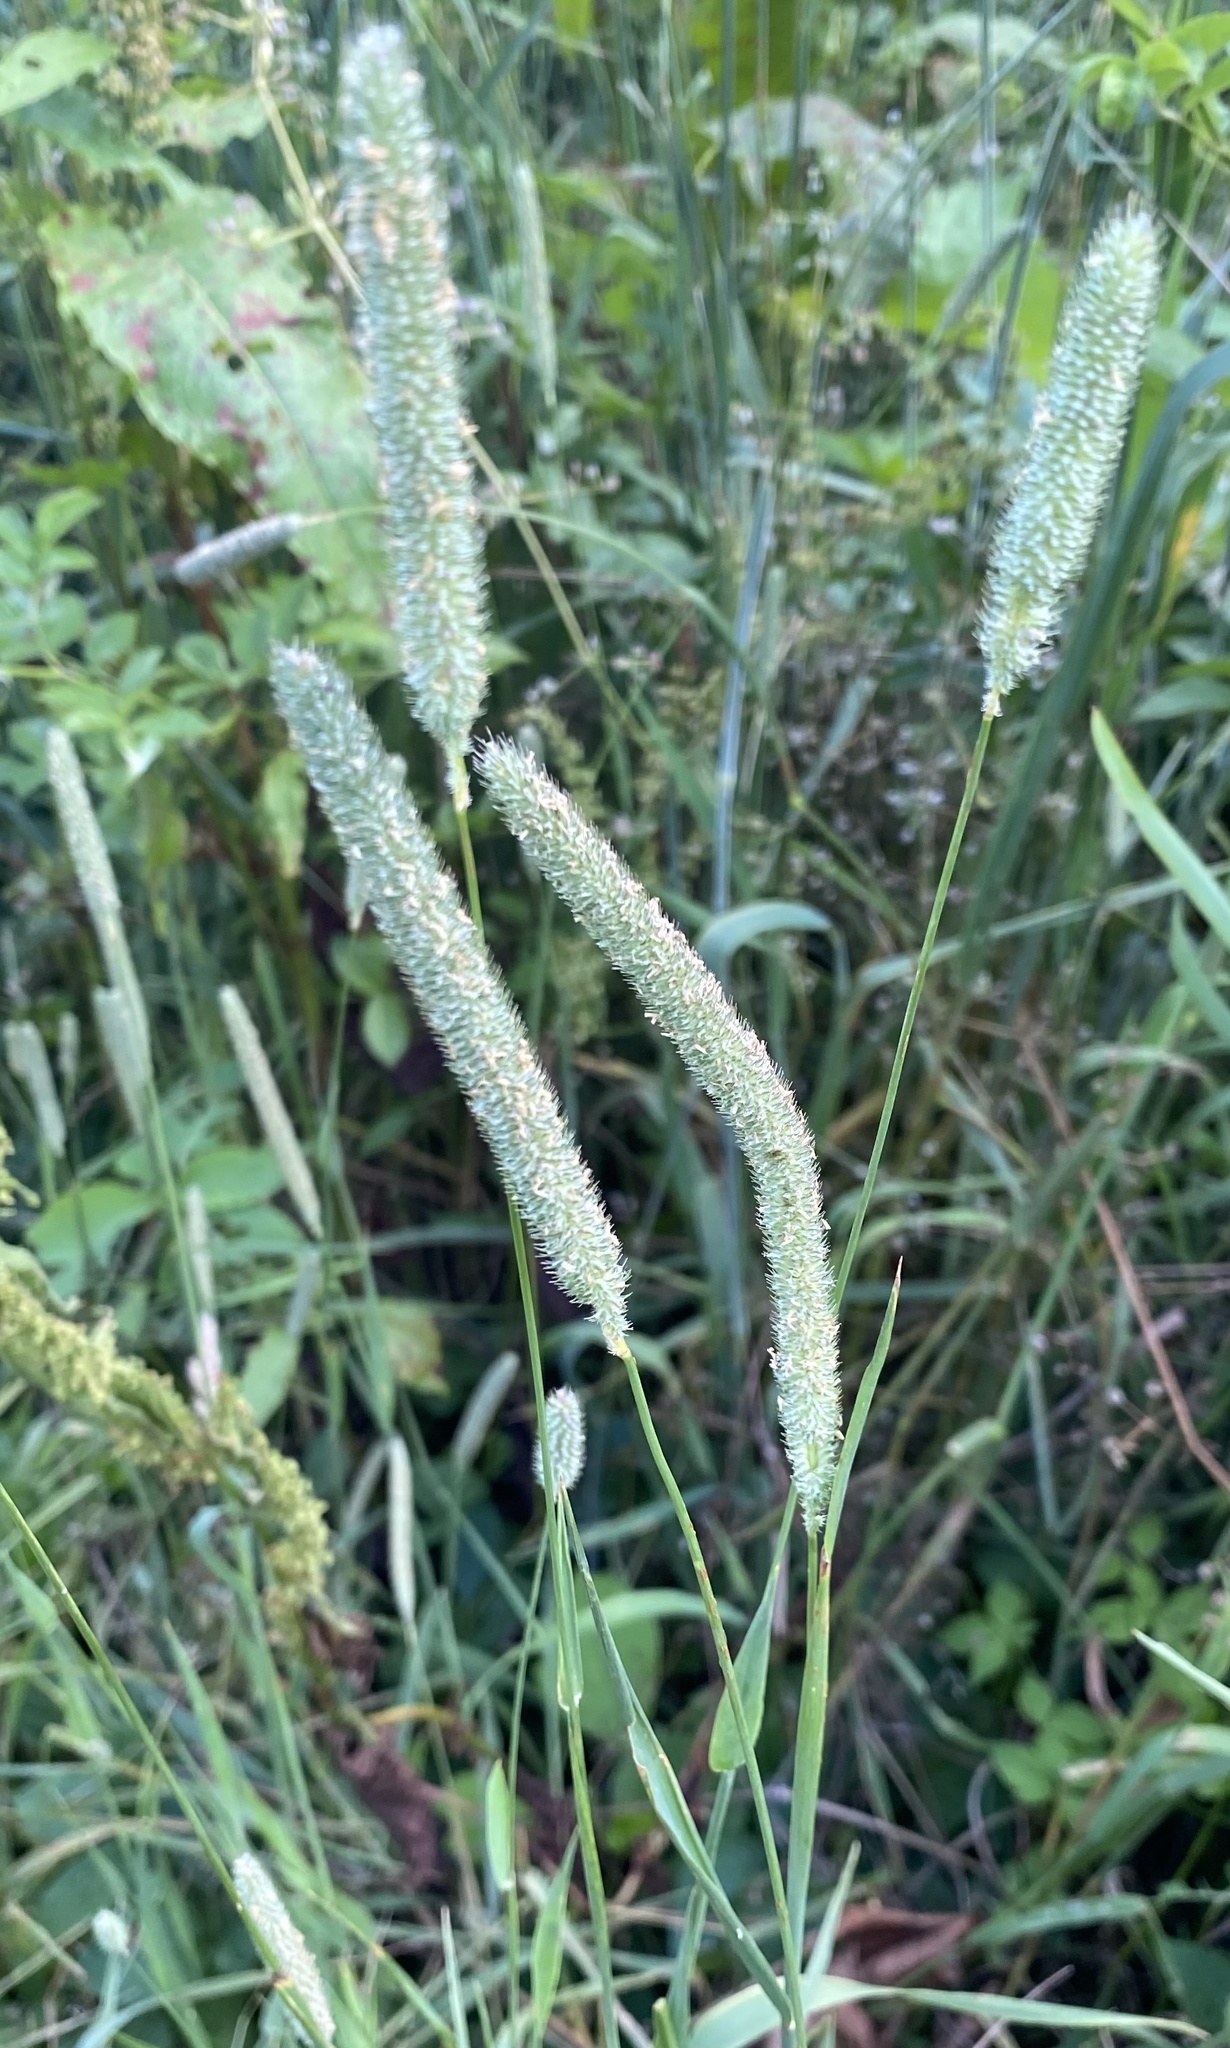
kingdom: Plantae
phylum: Tracheophyta
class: Liliopsida
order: Poales
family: Poaceae
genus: Phleum
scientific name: Phleum pratense
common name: Timothy grass
